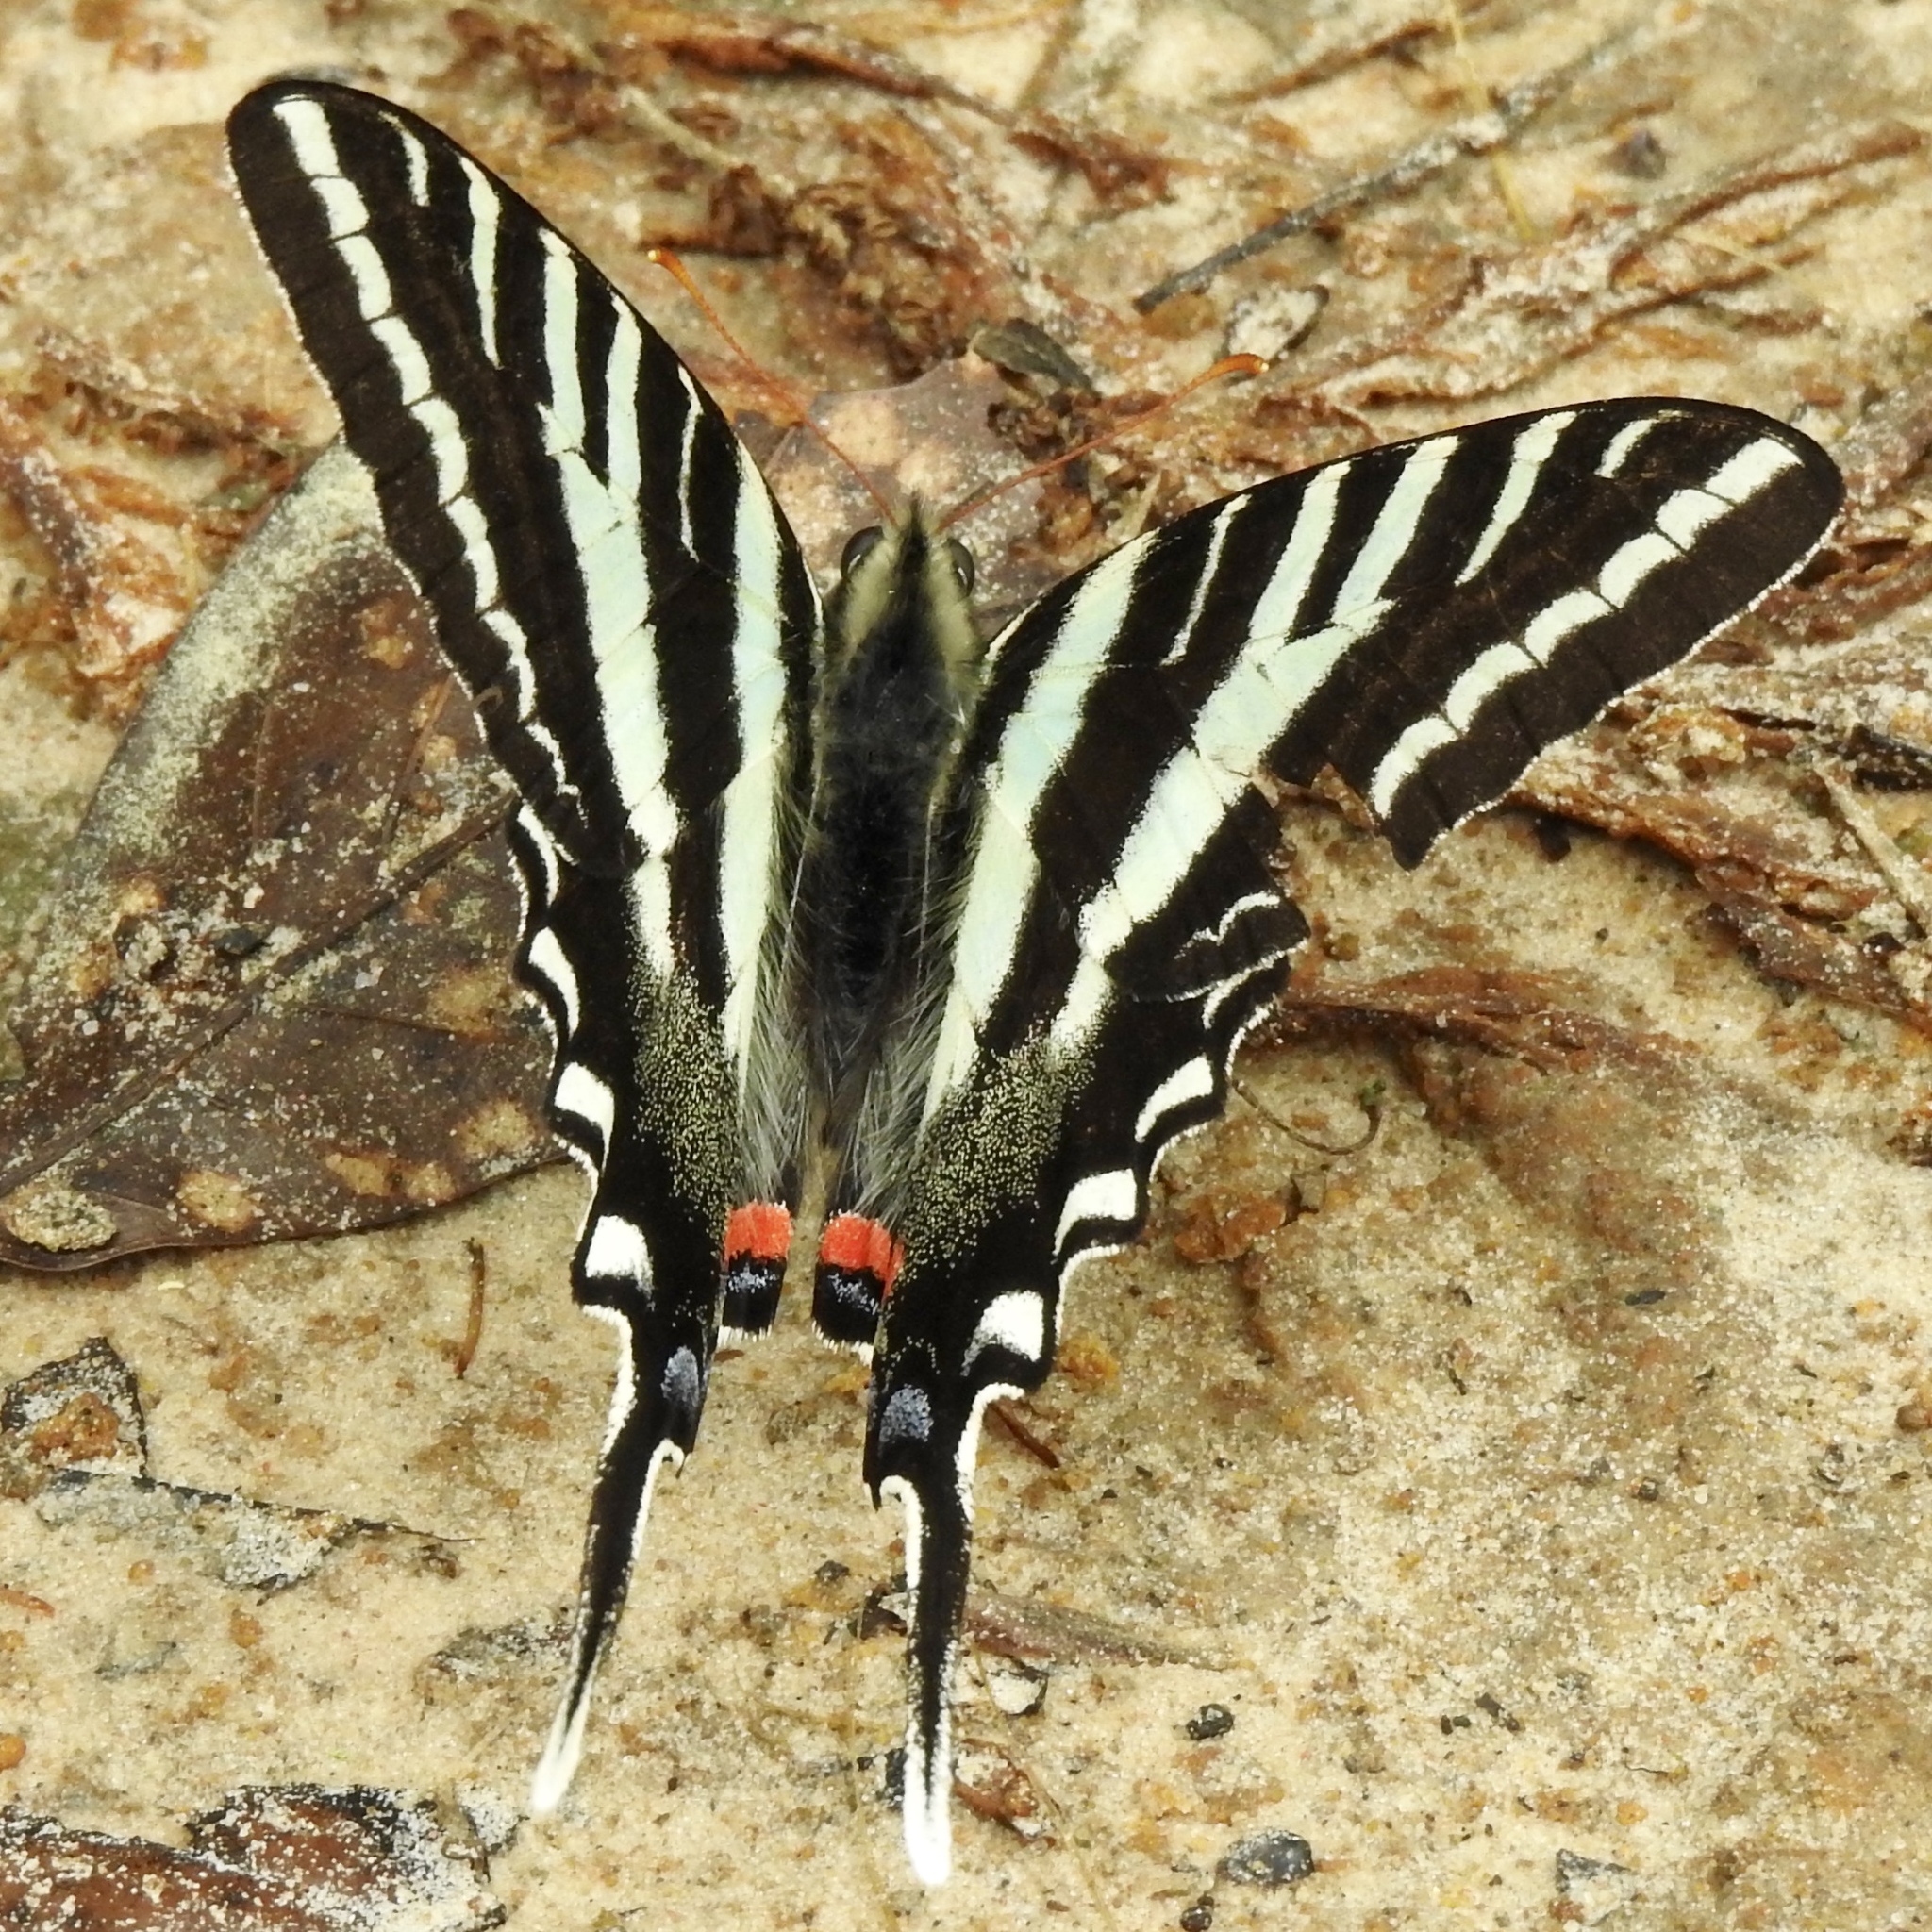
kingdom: Animalia
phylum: Arthropoda
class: Insecta
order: Lepidoptera
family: Papilionidae
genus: Protographium
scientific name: Protographium marcellus
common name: Zebra swallowtail
